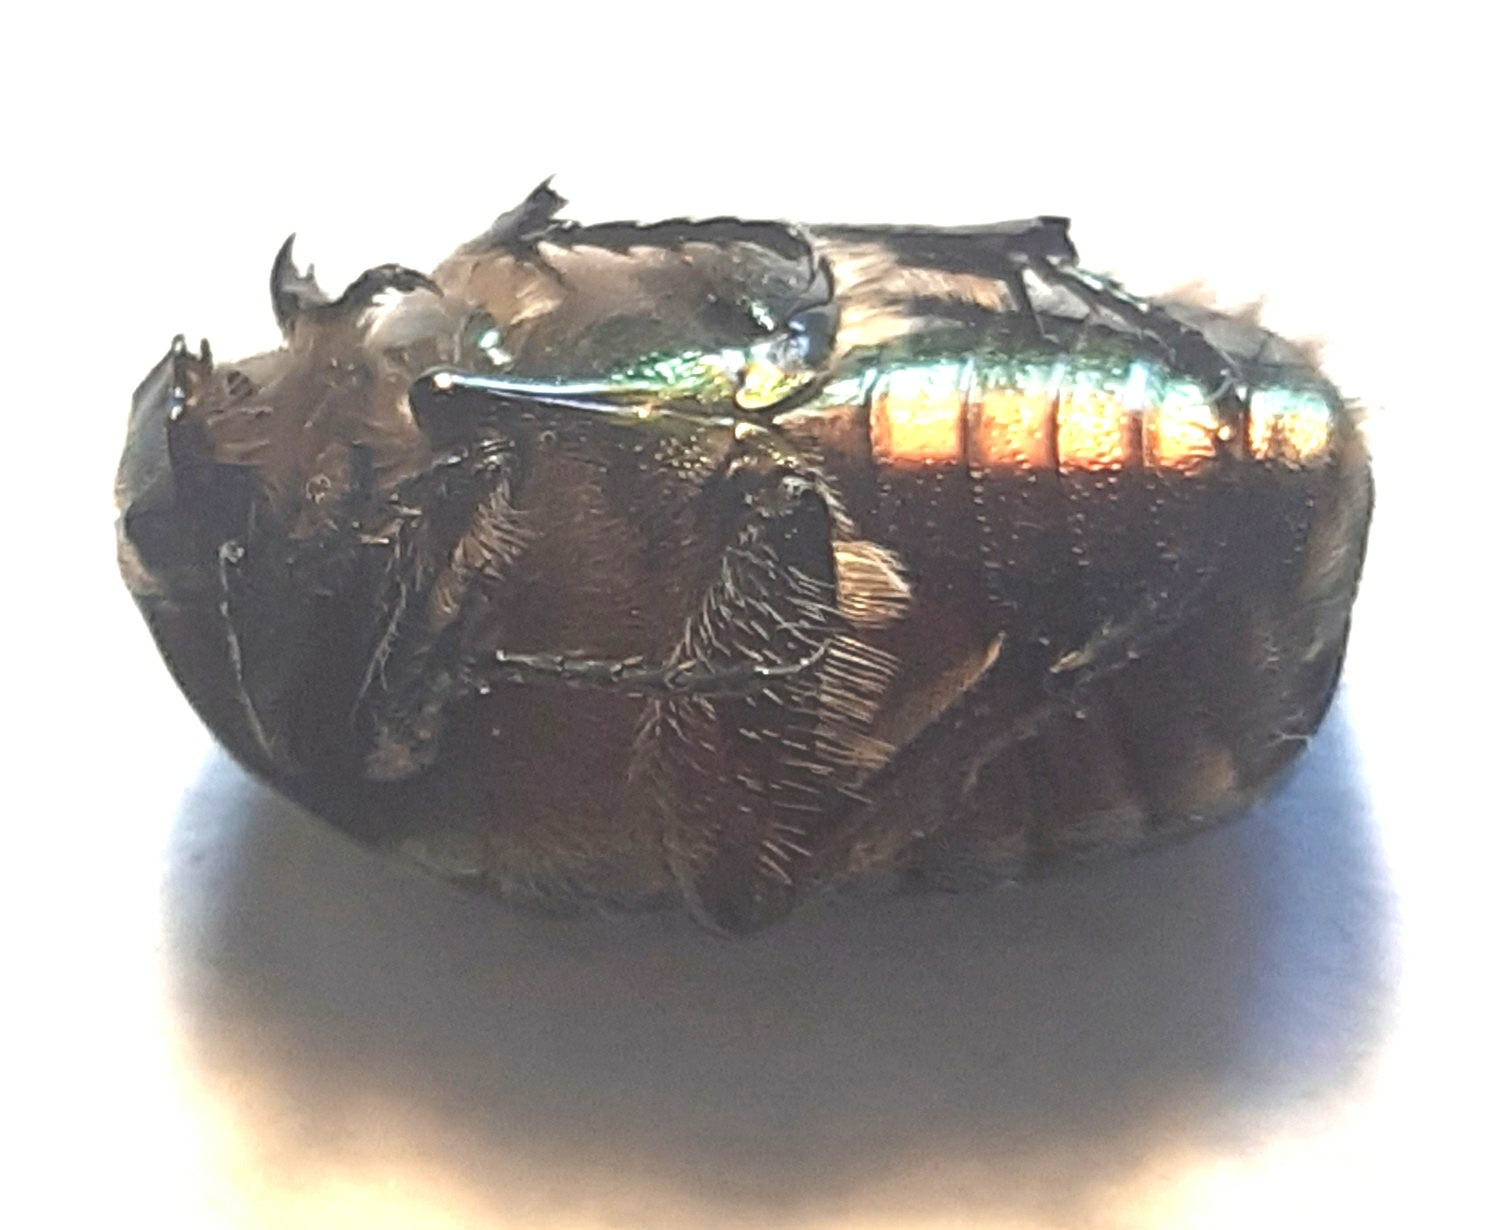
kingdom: Animalia
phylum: Arthropoda
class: Insecta
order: Coleoptera
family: Scarabaeidae
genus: Cetonia
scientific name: Cetonia aurata
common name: Rose chafer
